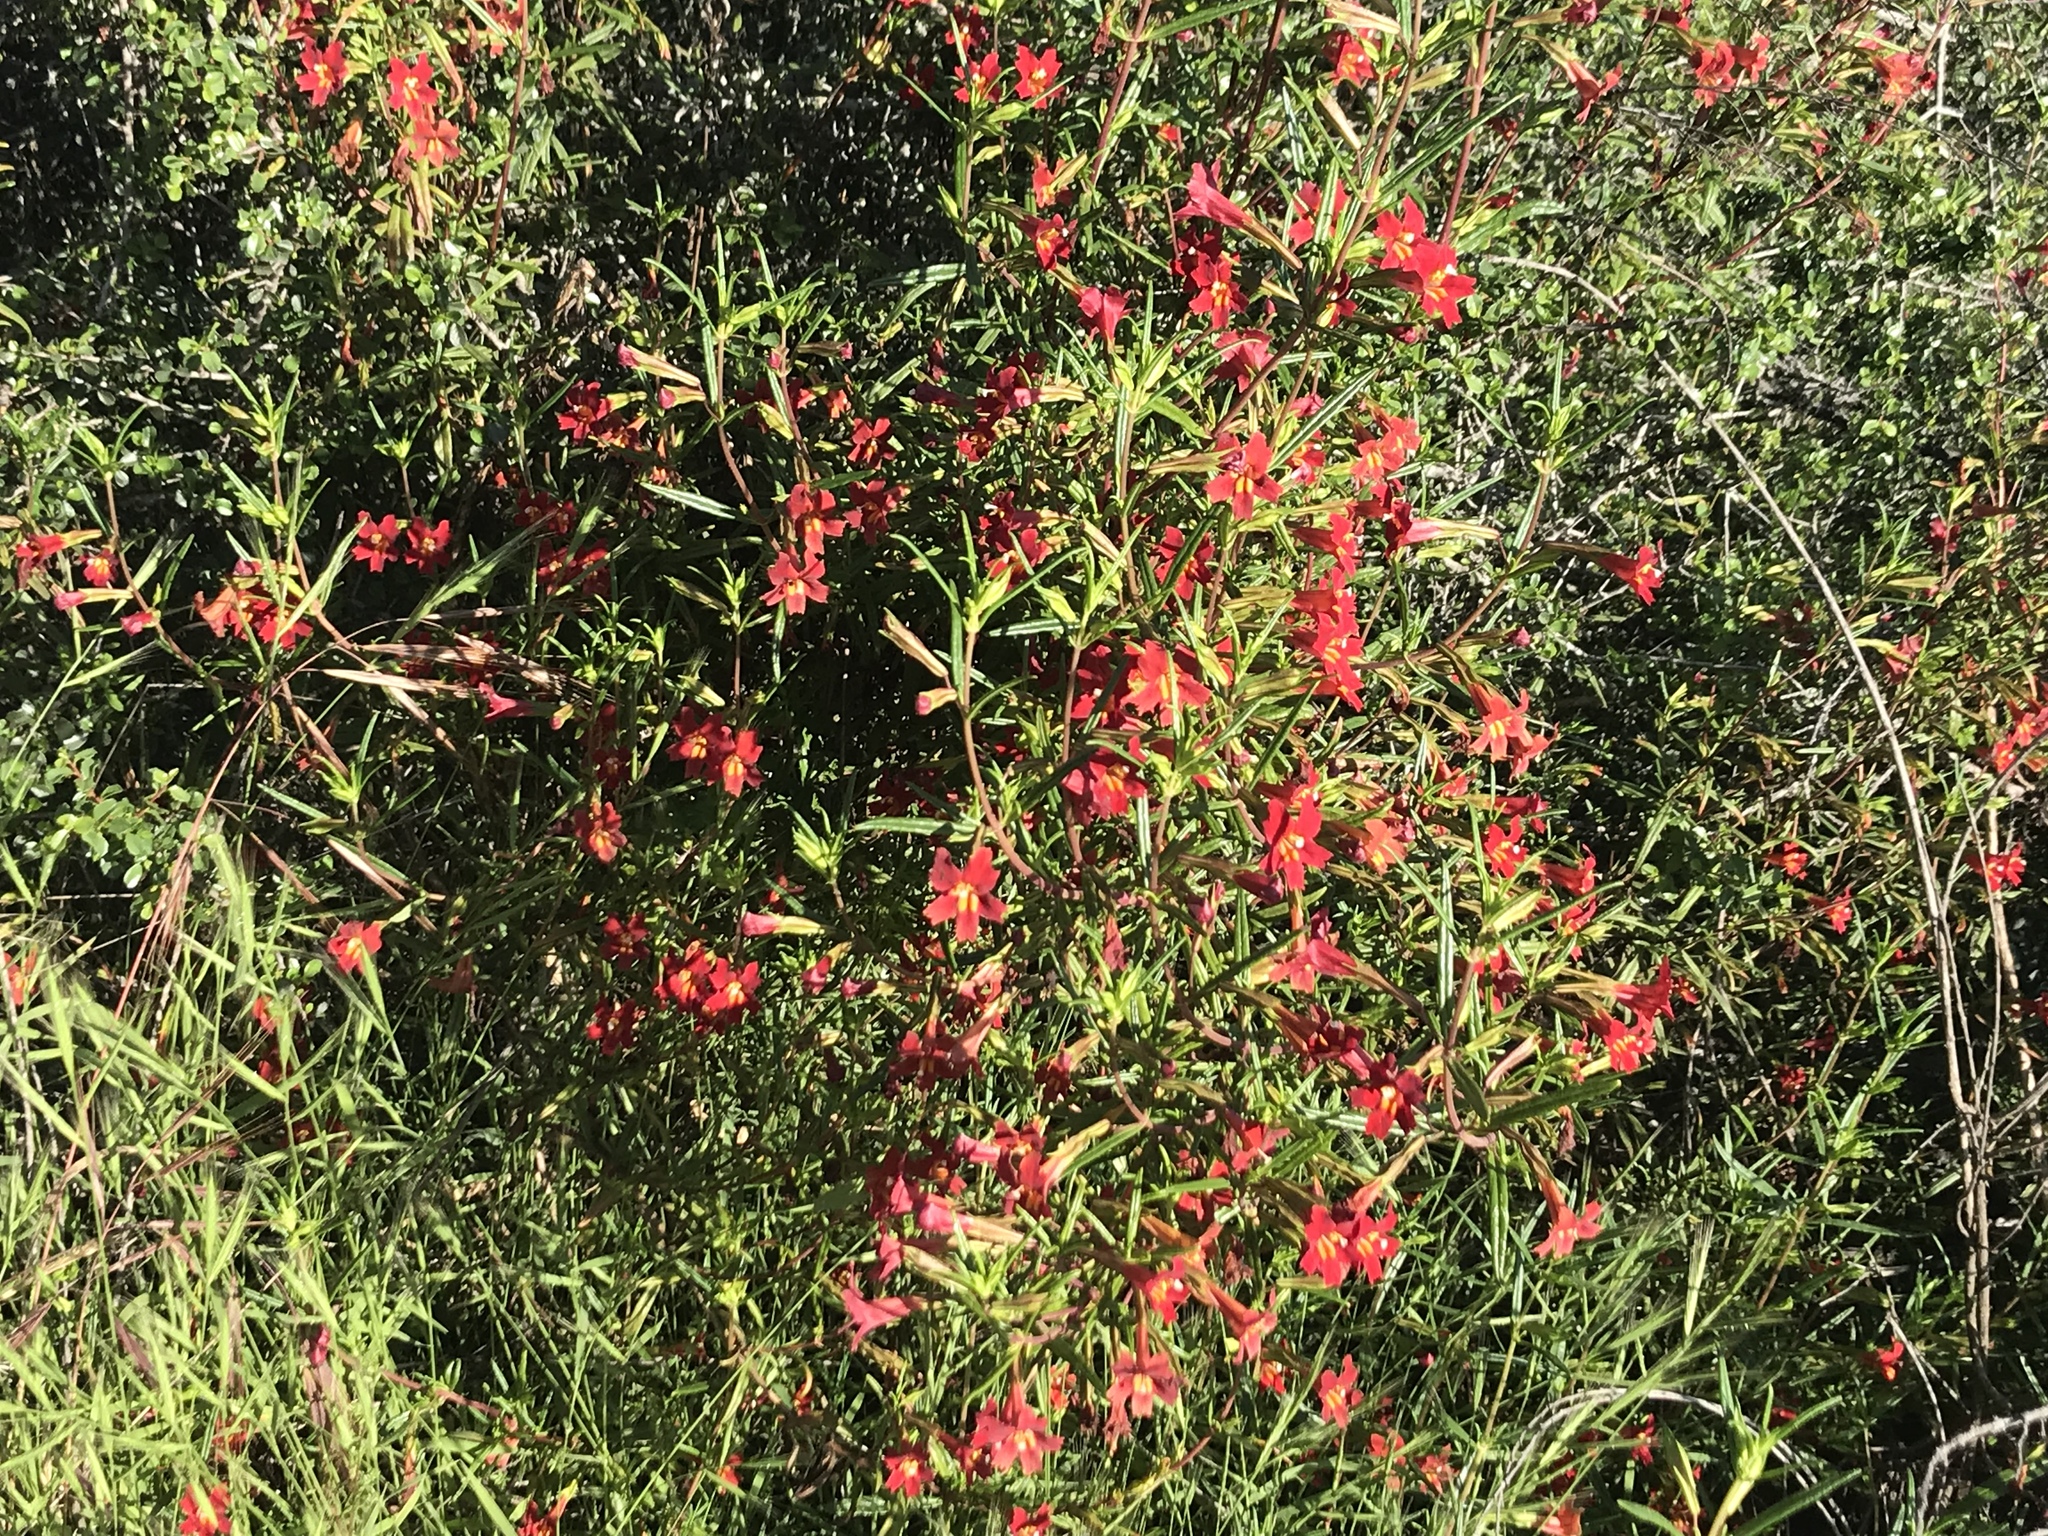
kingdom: Plantae
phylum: Tracheophyta
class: Magnoliopsida
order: Lamiales
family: Phrymaceae
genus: Diplacus
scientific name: Diplacus puniceus
